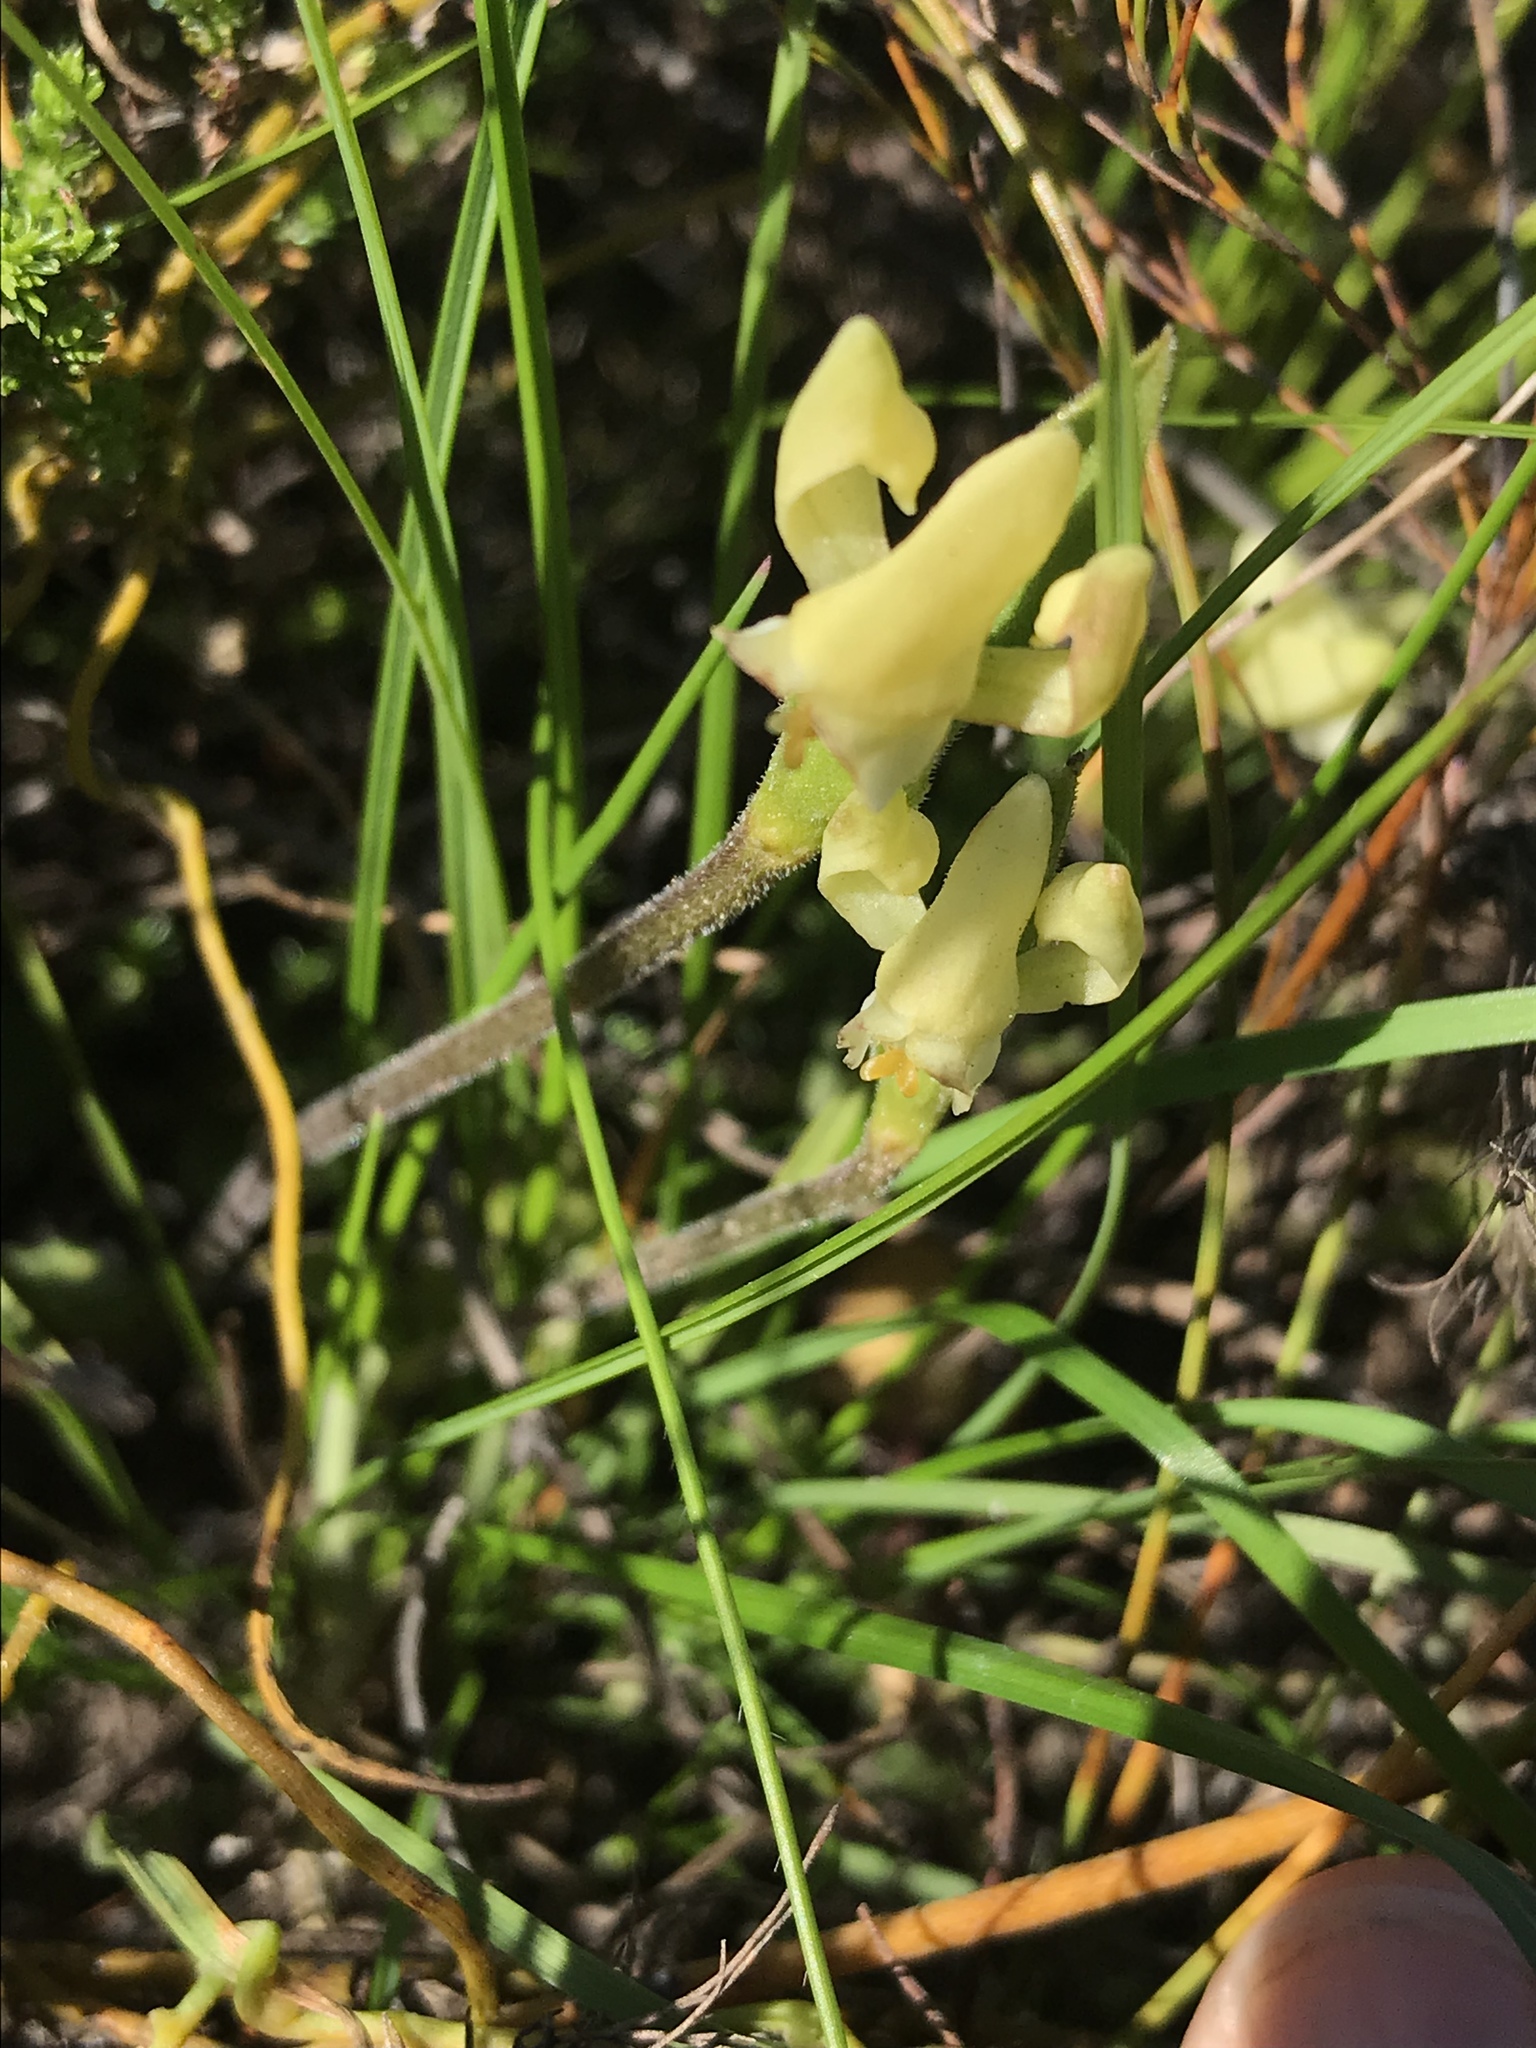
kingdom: Plantae
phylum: Tracheophyta
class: Liliopsida
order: Asparagales
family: Orchidaceae
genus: Disperis
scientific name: Disperis villosa
